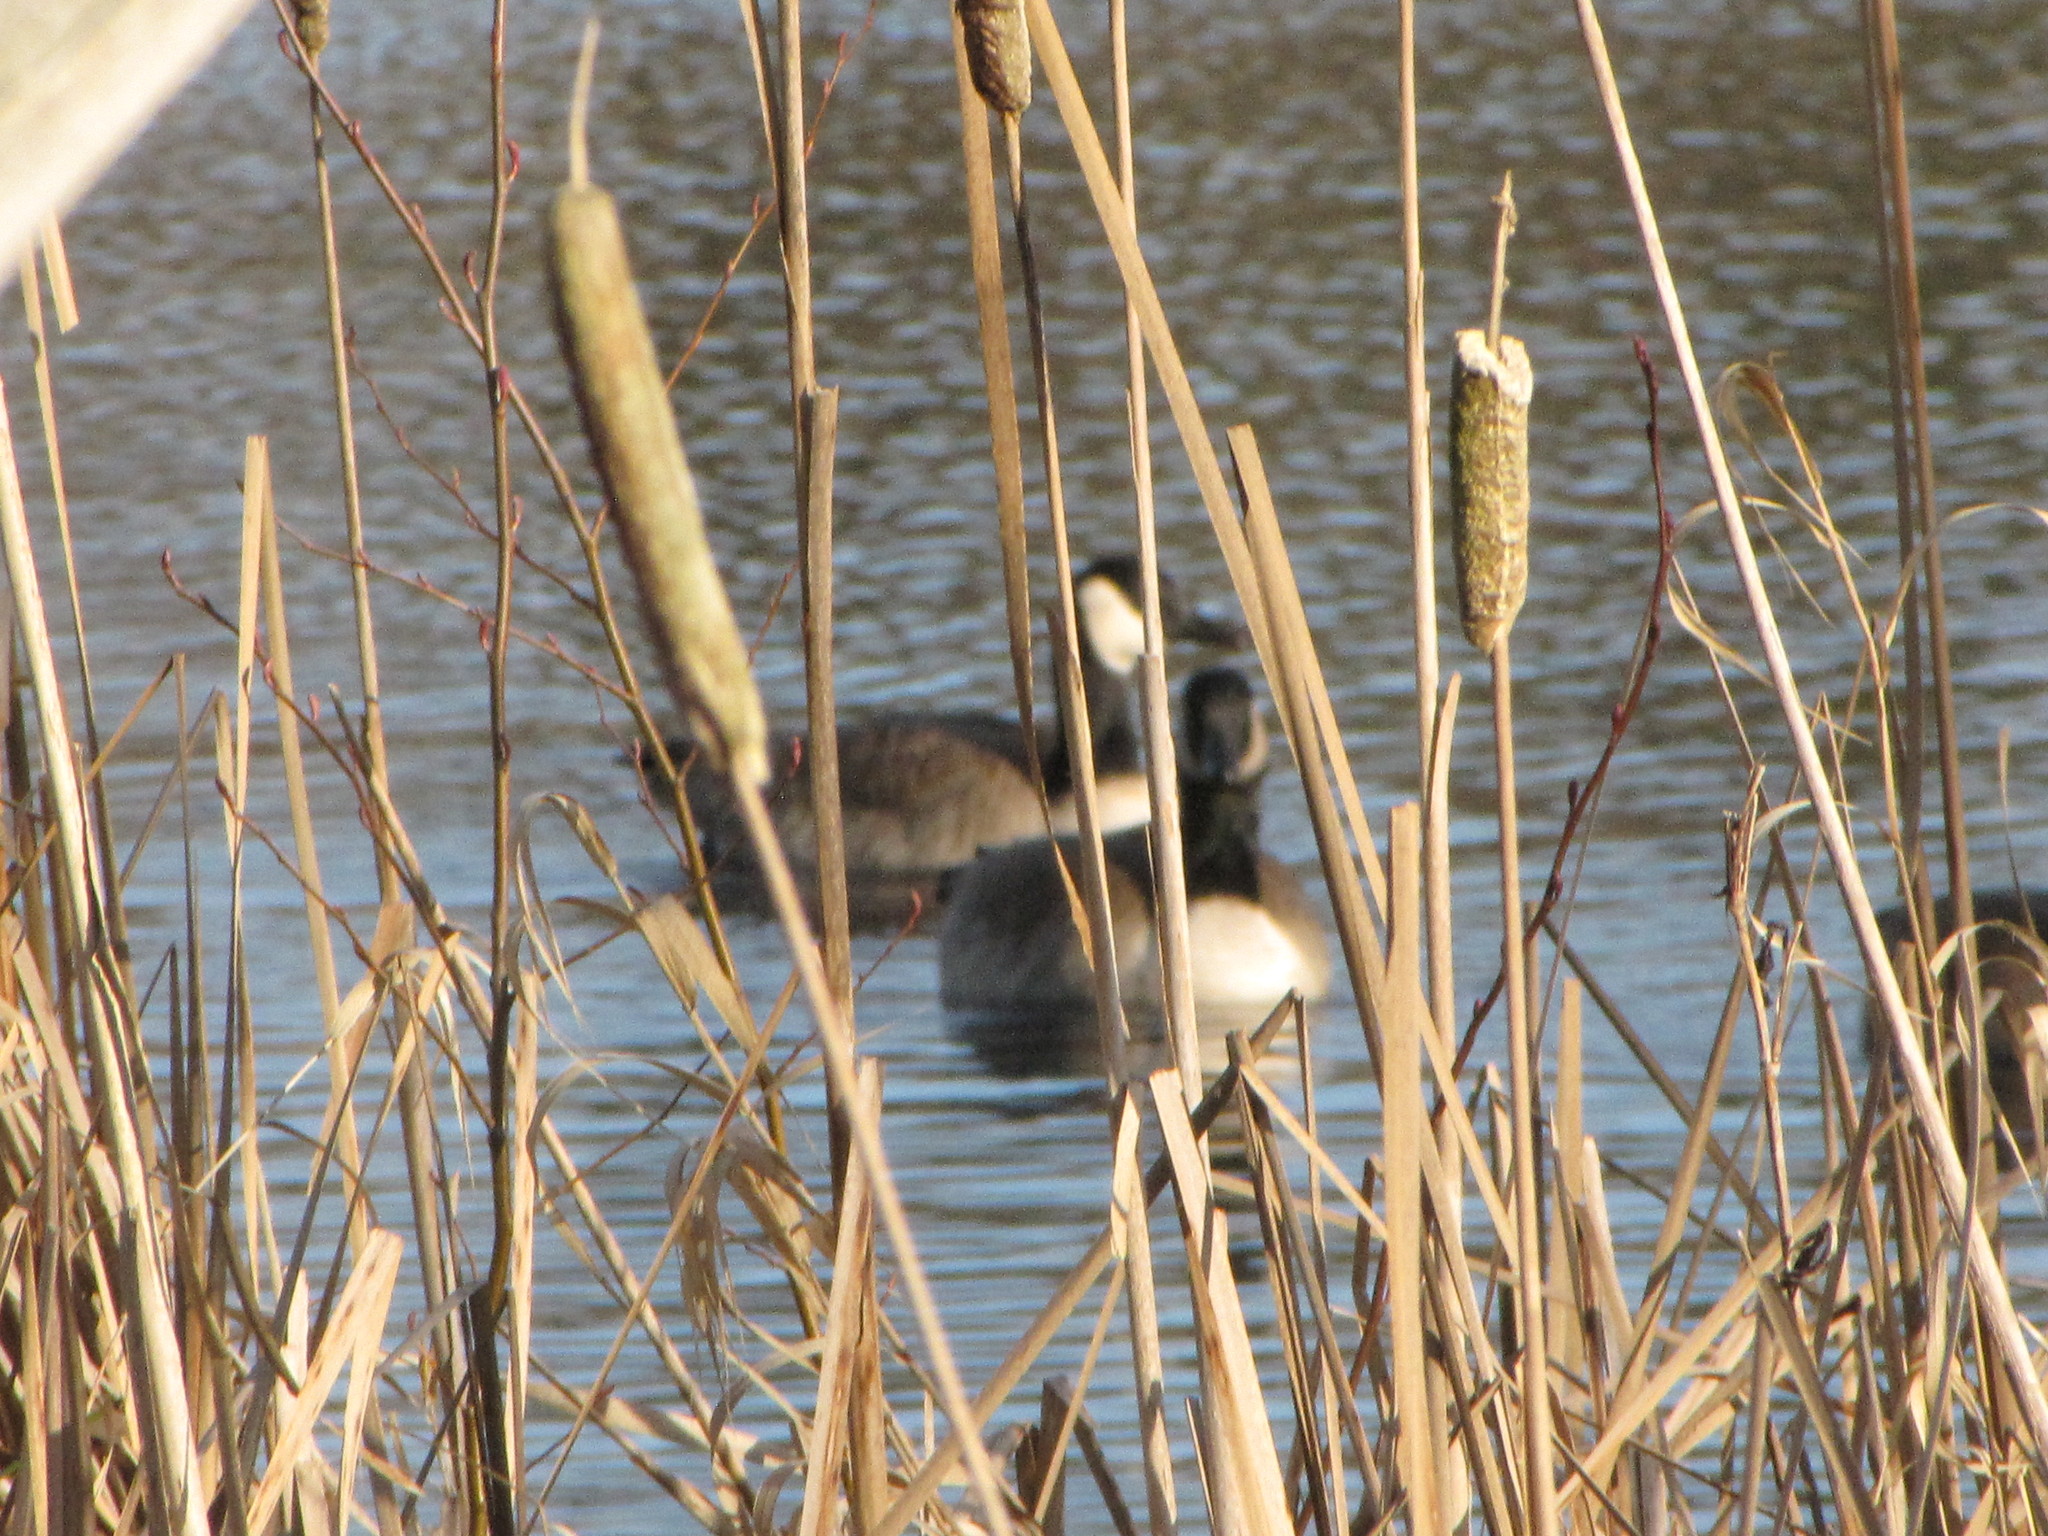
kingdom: Animalia
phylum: Chordata
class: Aves
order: Anseriformes
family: Anatidae
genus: Branta
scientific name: Branta canadensis
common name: Canada goose
